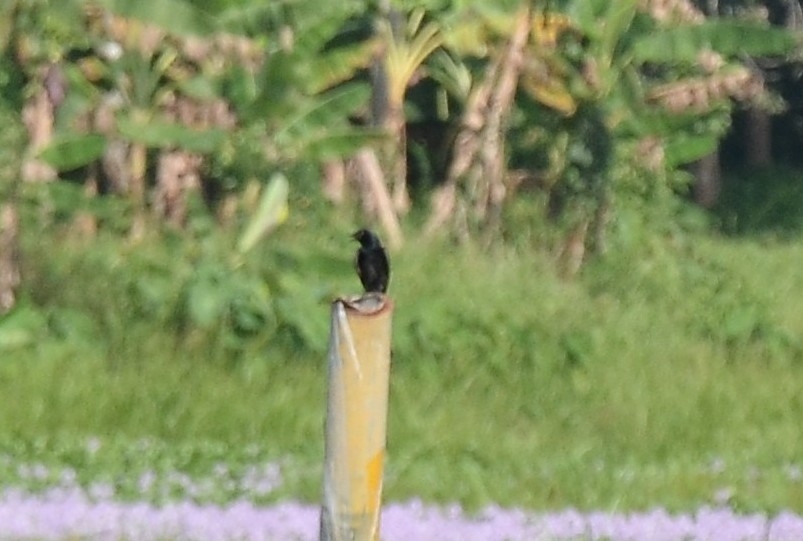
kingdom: Animalia
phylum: Chordata
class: Aves
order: Passeriformes
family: Dicruridae
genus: Dicrurus
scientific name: Dicrurus macrocercus
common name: Black drongo
